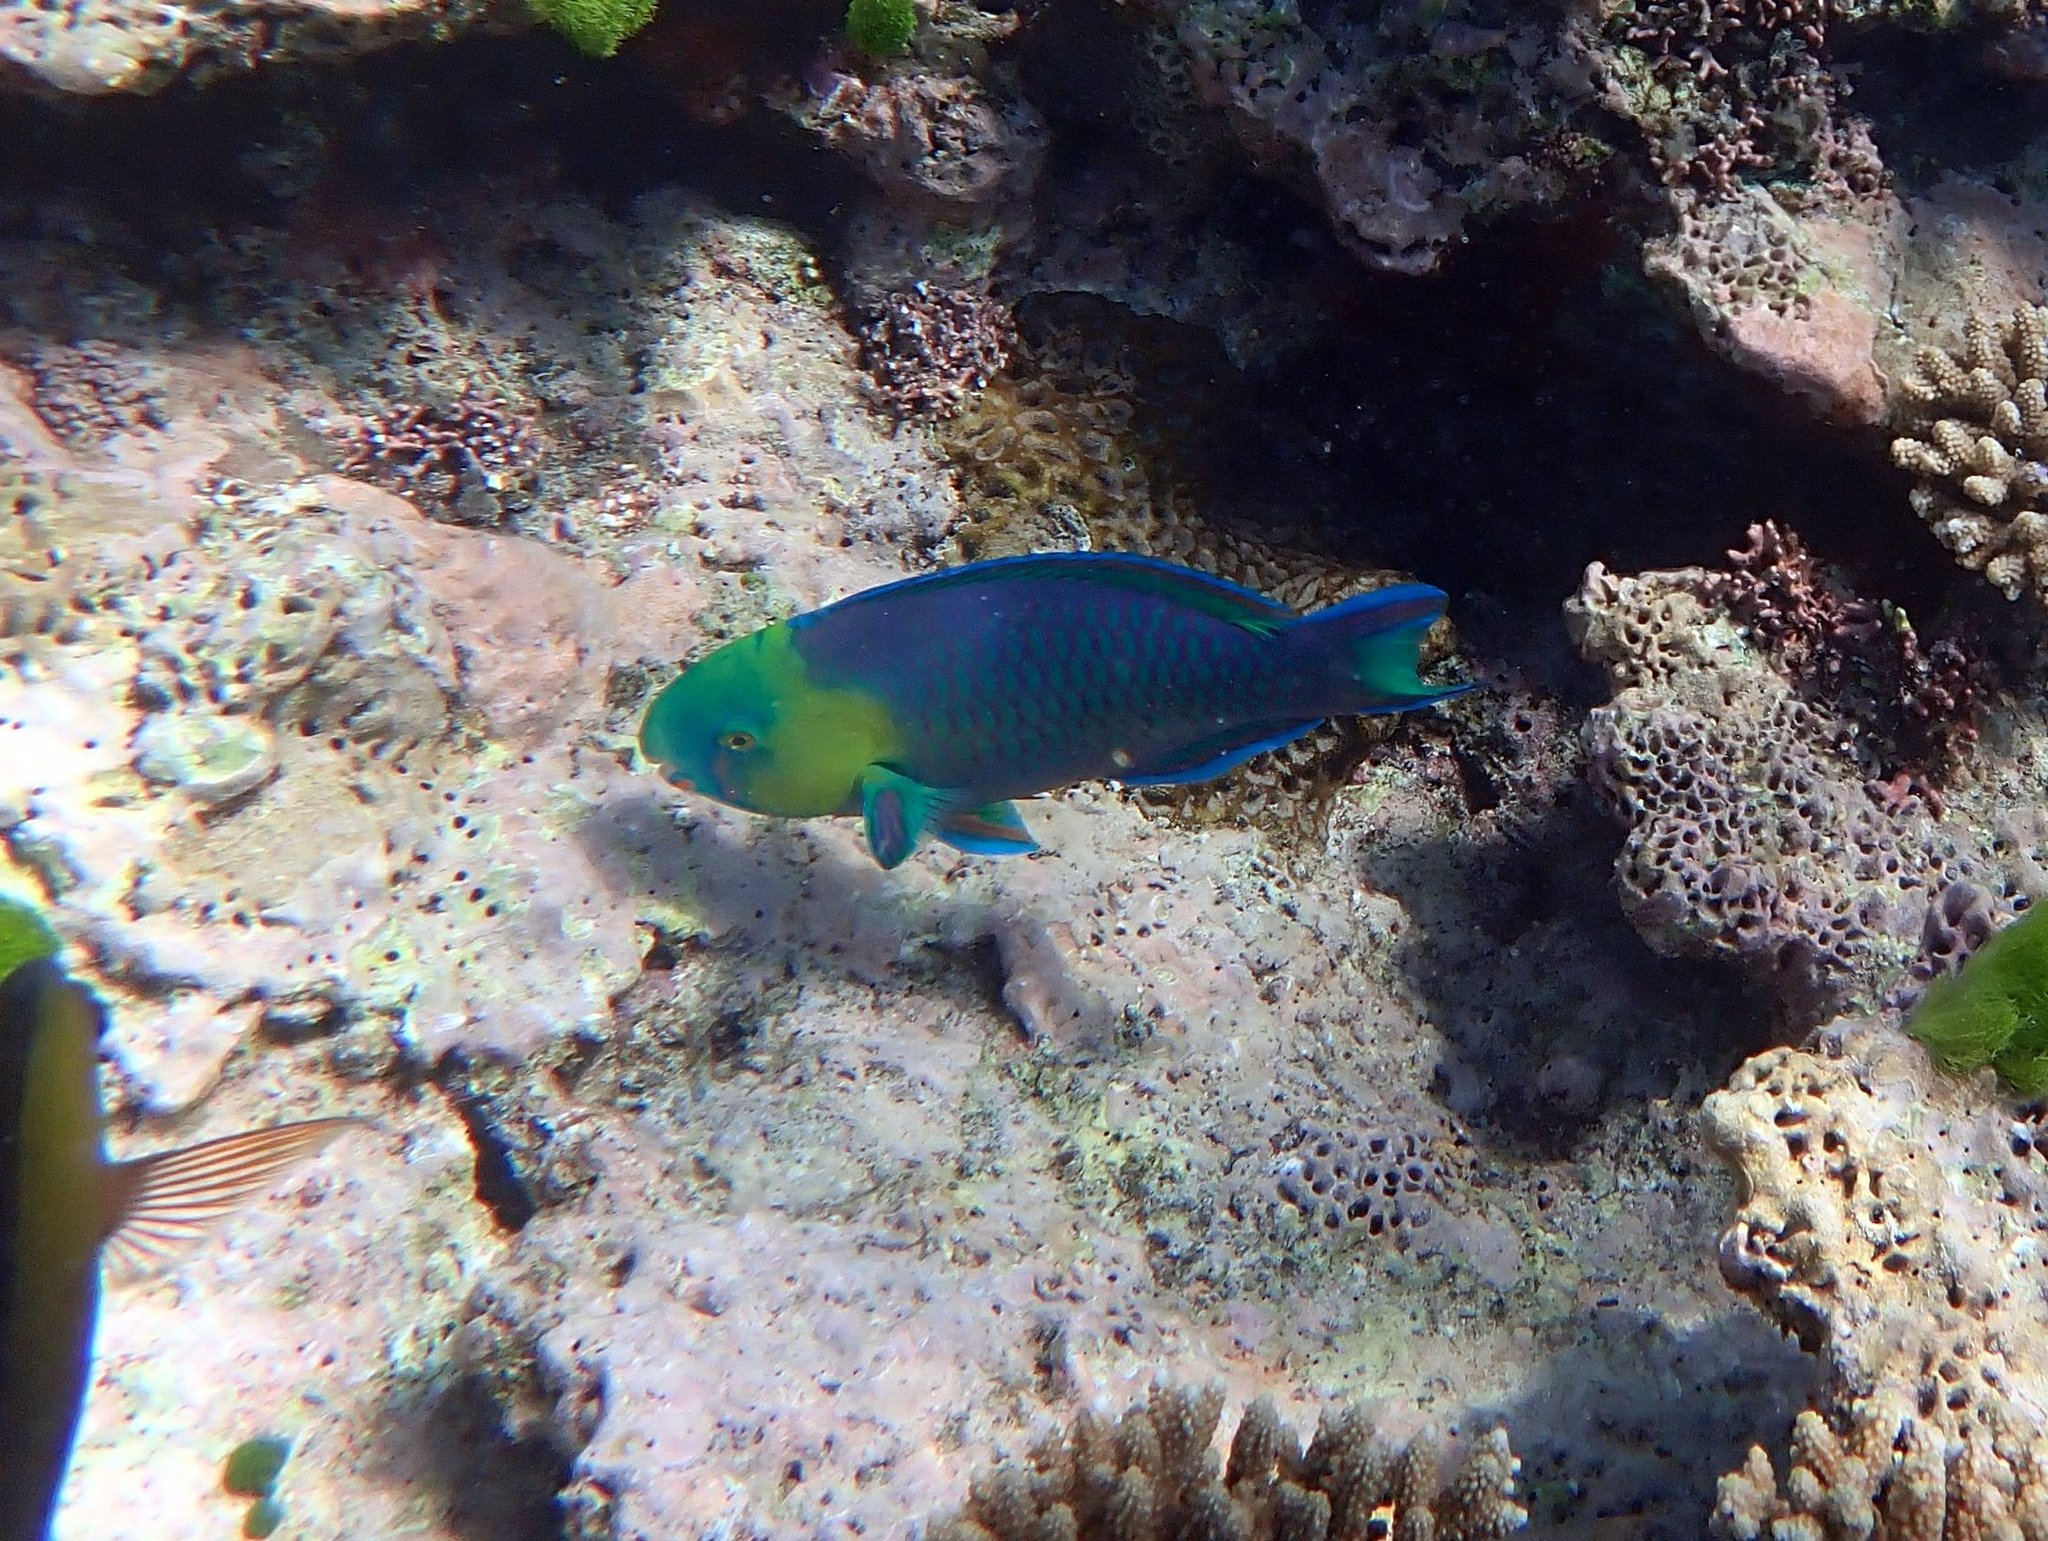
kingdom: Animalia
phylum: Chordata
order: Perciformes
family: Scaridae
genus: Scarus
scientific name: Scarus spinus
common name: Greensnout parrotfish
